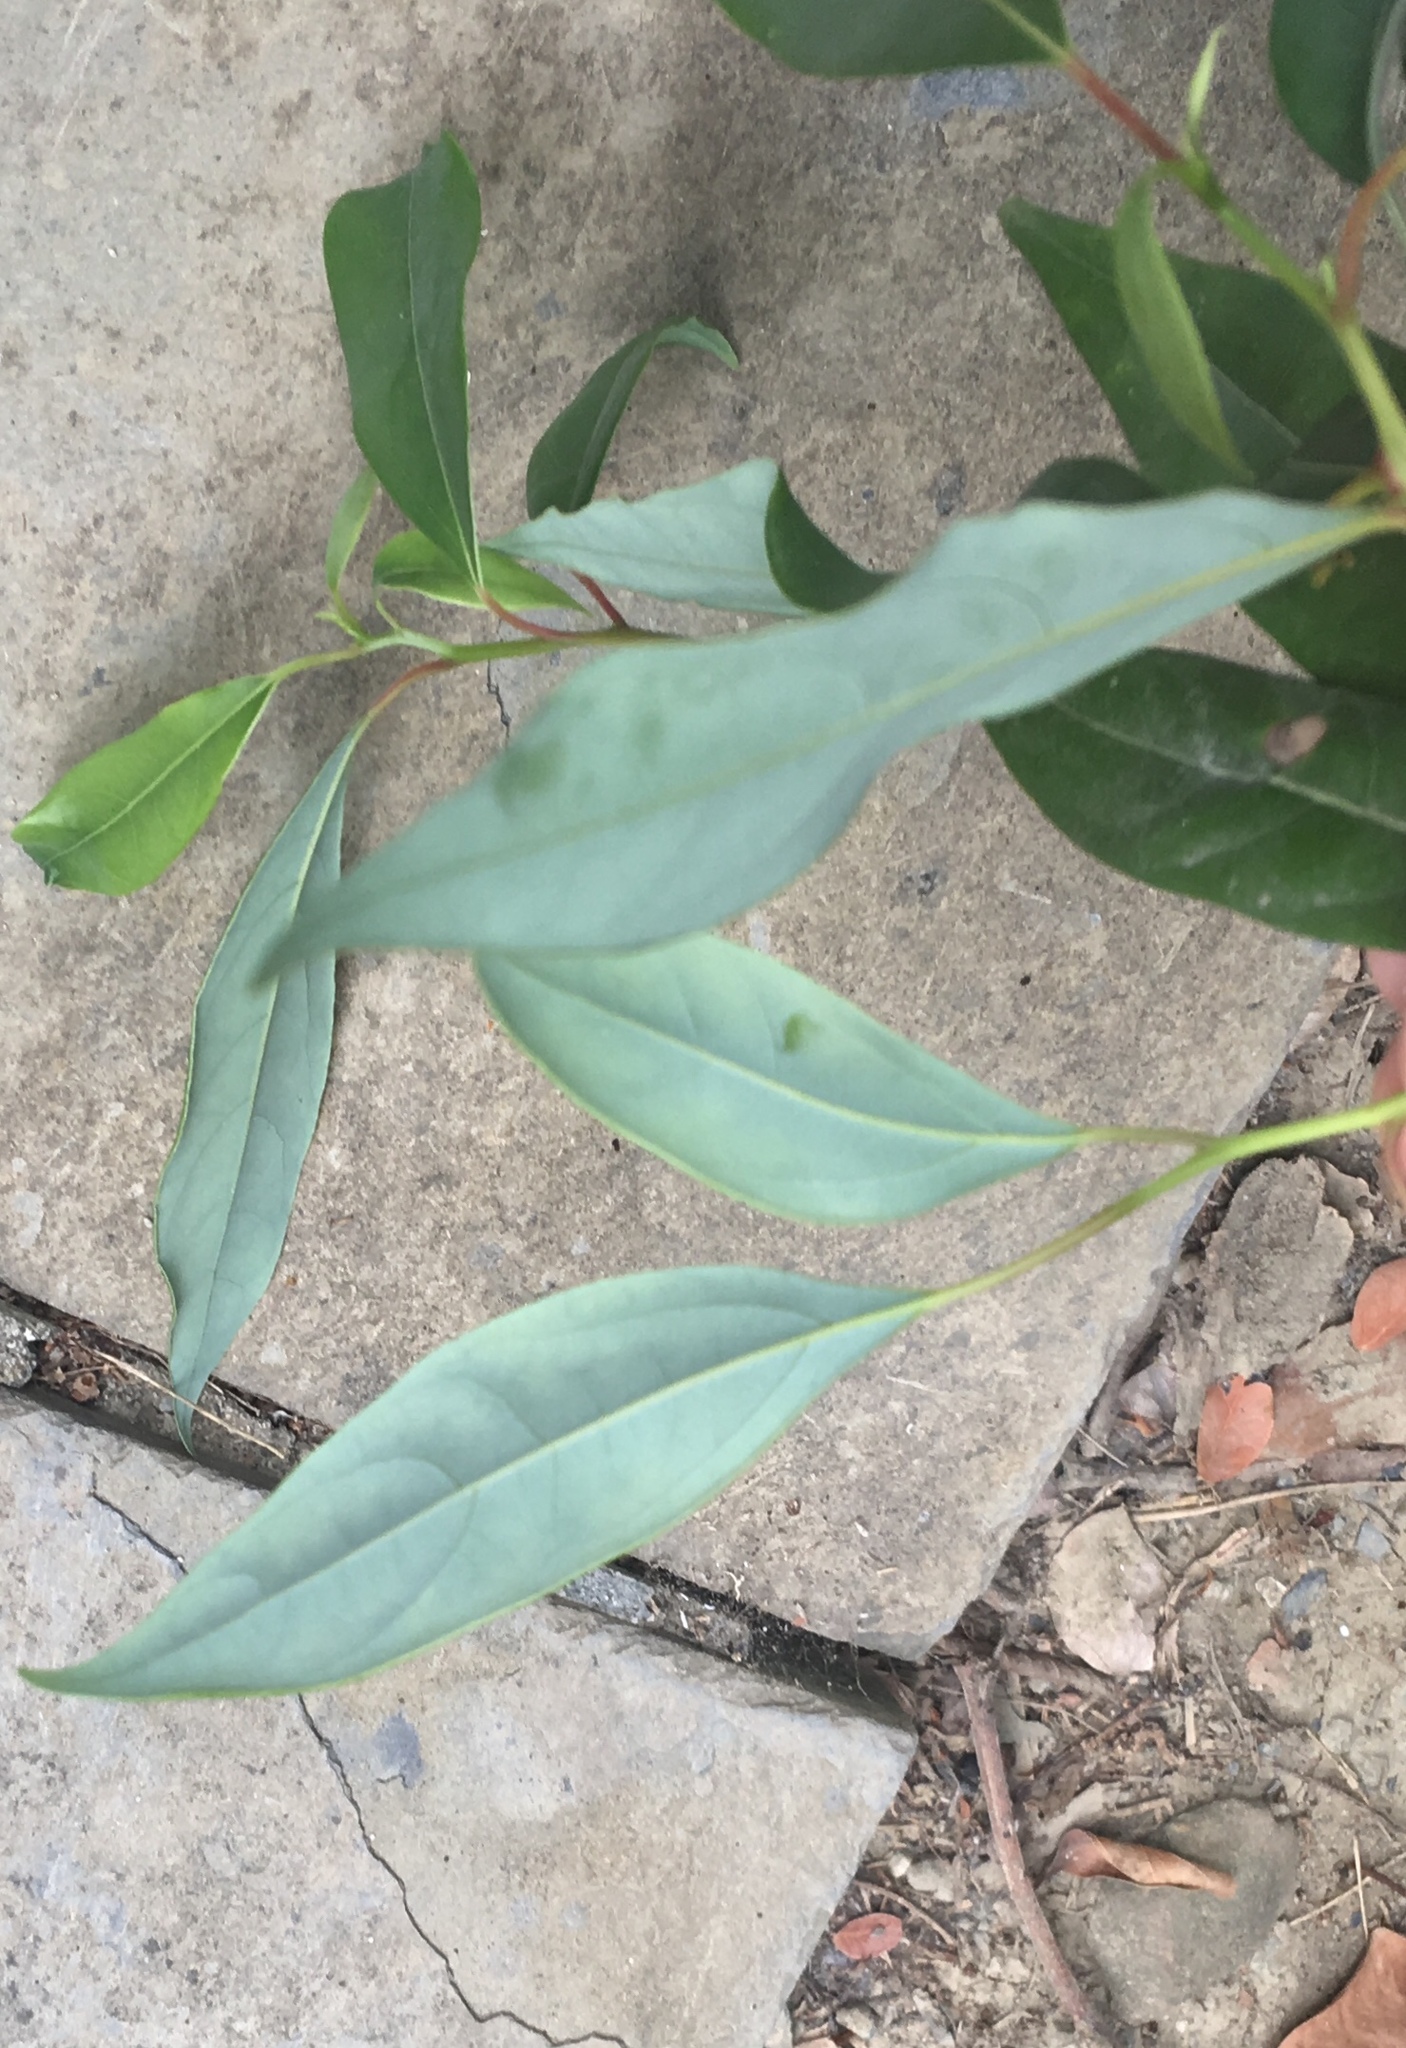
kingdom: Plantae
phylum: Tracheophyta
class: Magnoliopsida
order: Laurales
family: Lauraceae
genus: Cinnamomum
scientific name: Cinnamomum camphora
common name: Camphortree
